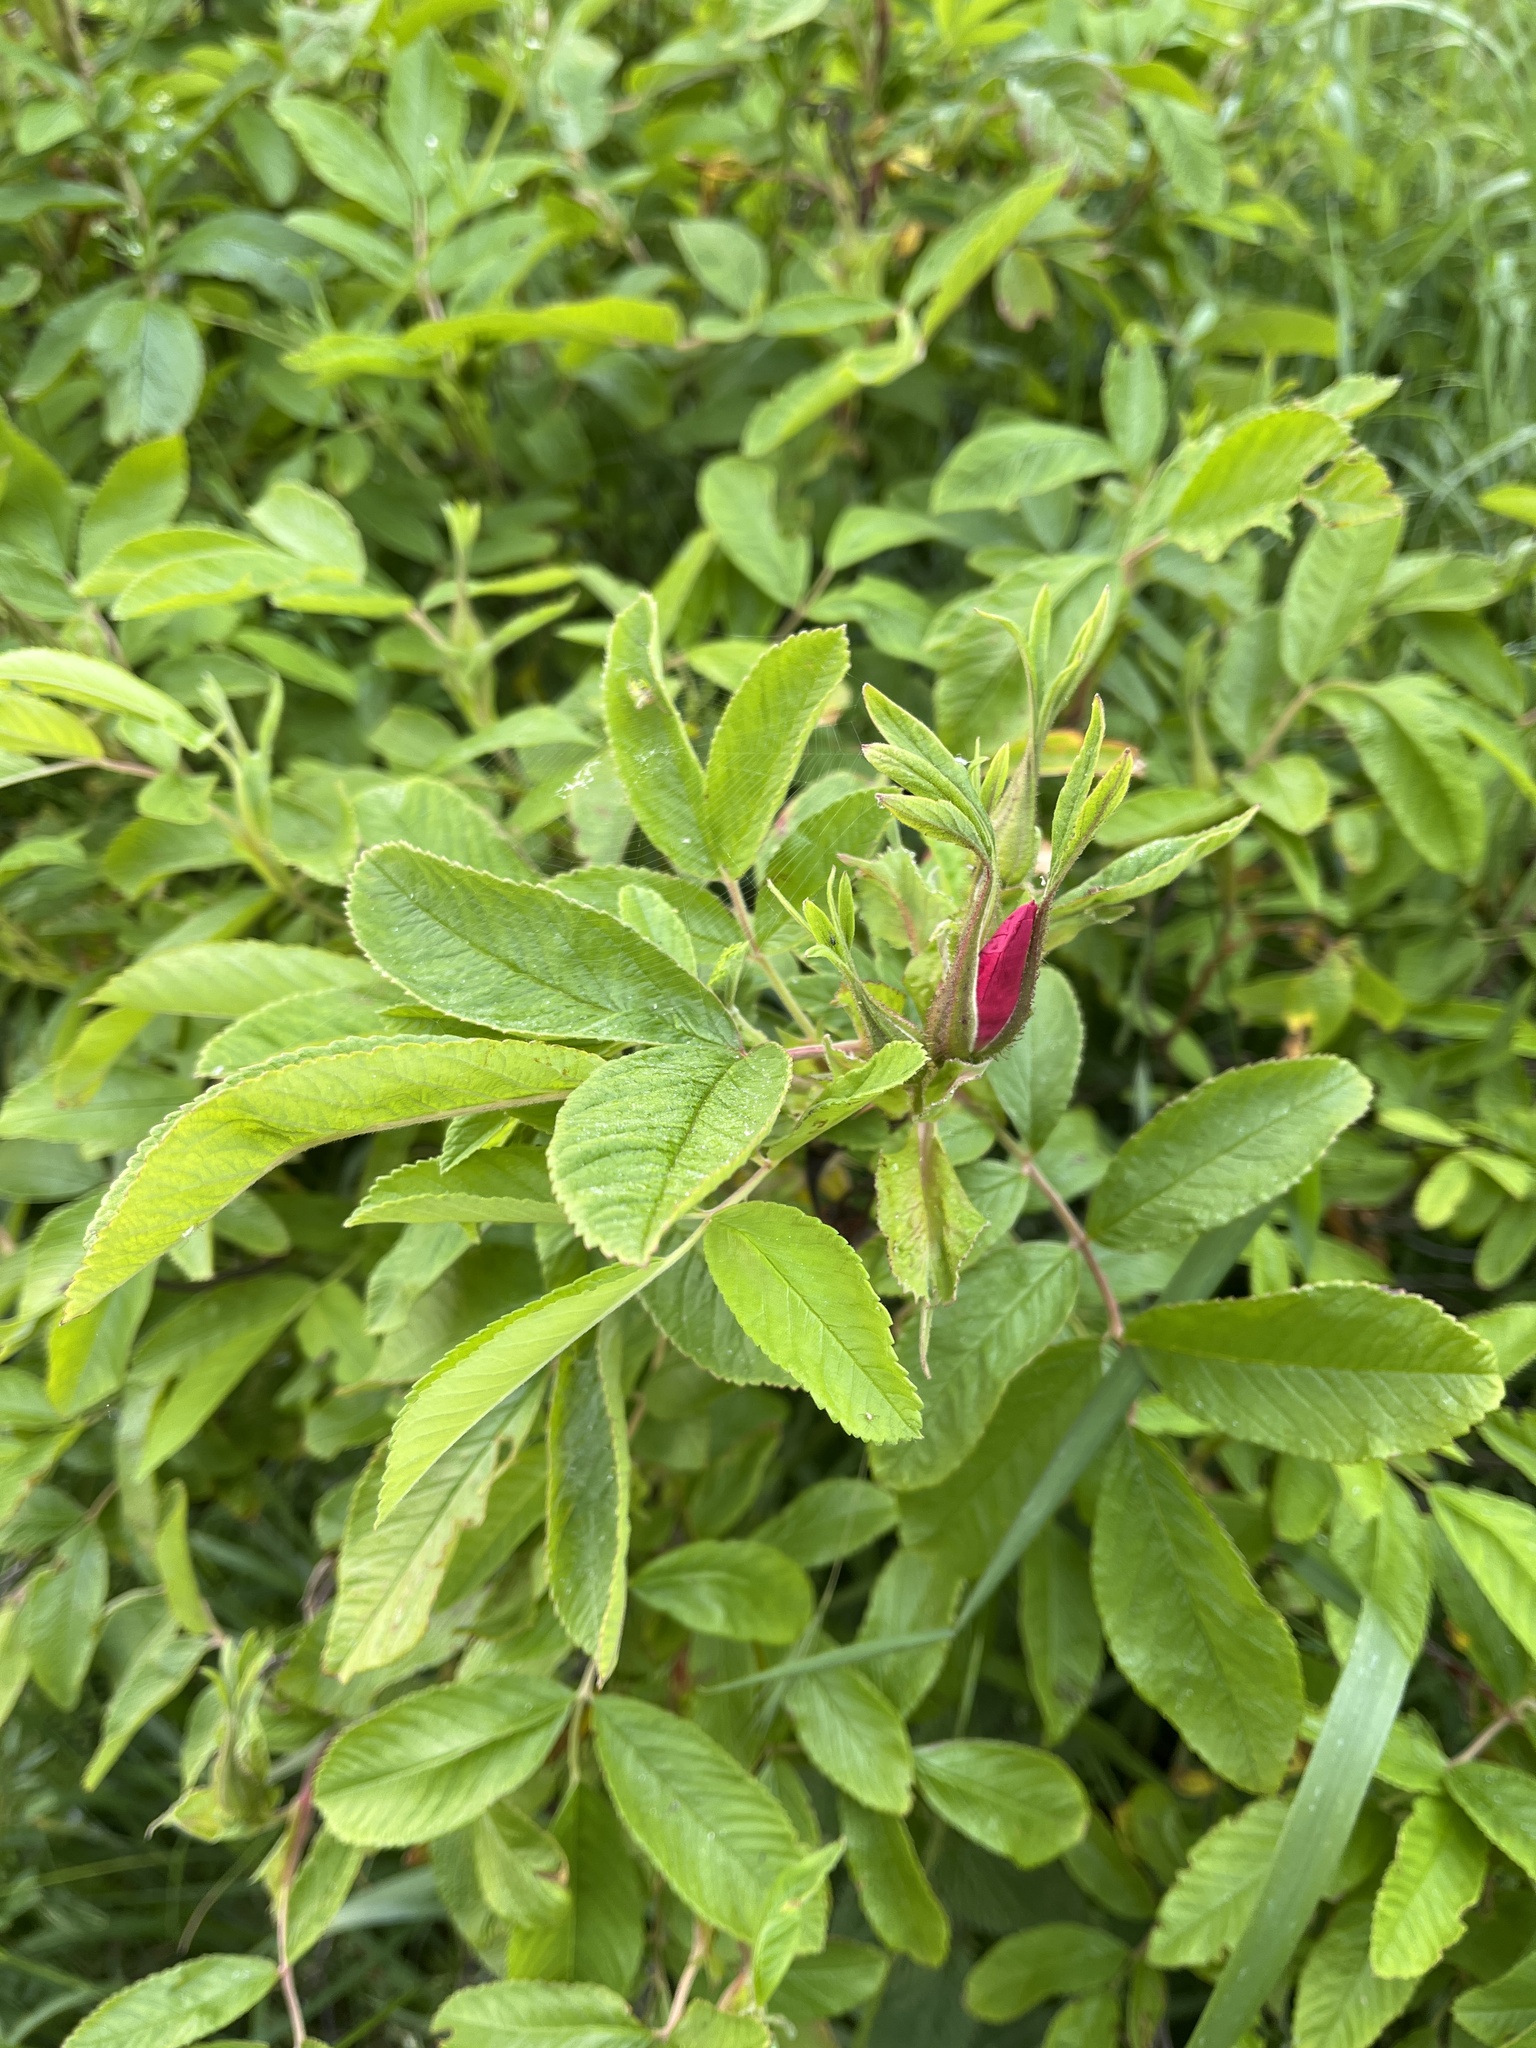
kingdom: Plantae
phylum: Tracheophyta
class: Magnoliopsida
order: Rosales
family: Rosaceae
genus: Rosa
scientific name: Rosa rugosa
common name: Japanese rose
